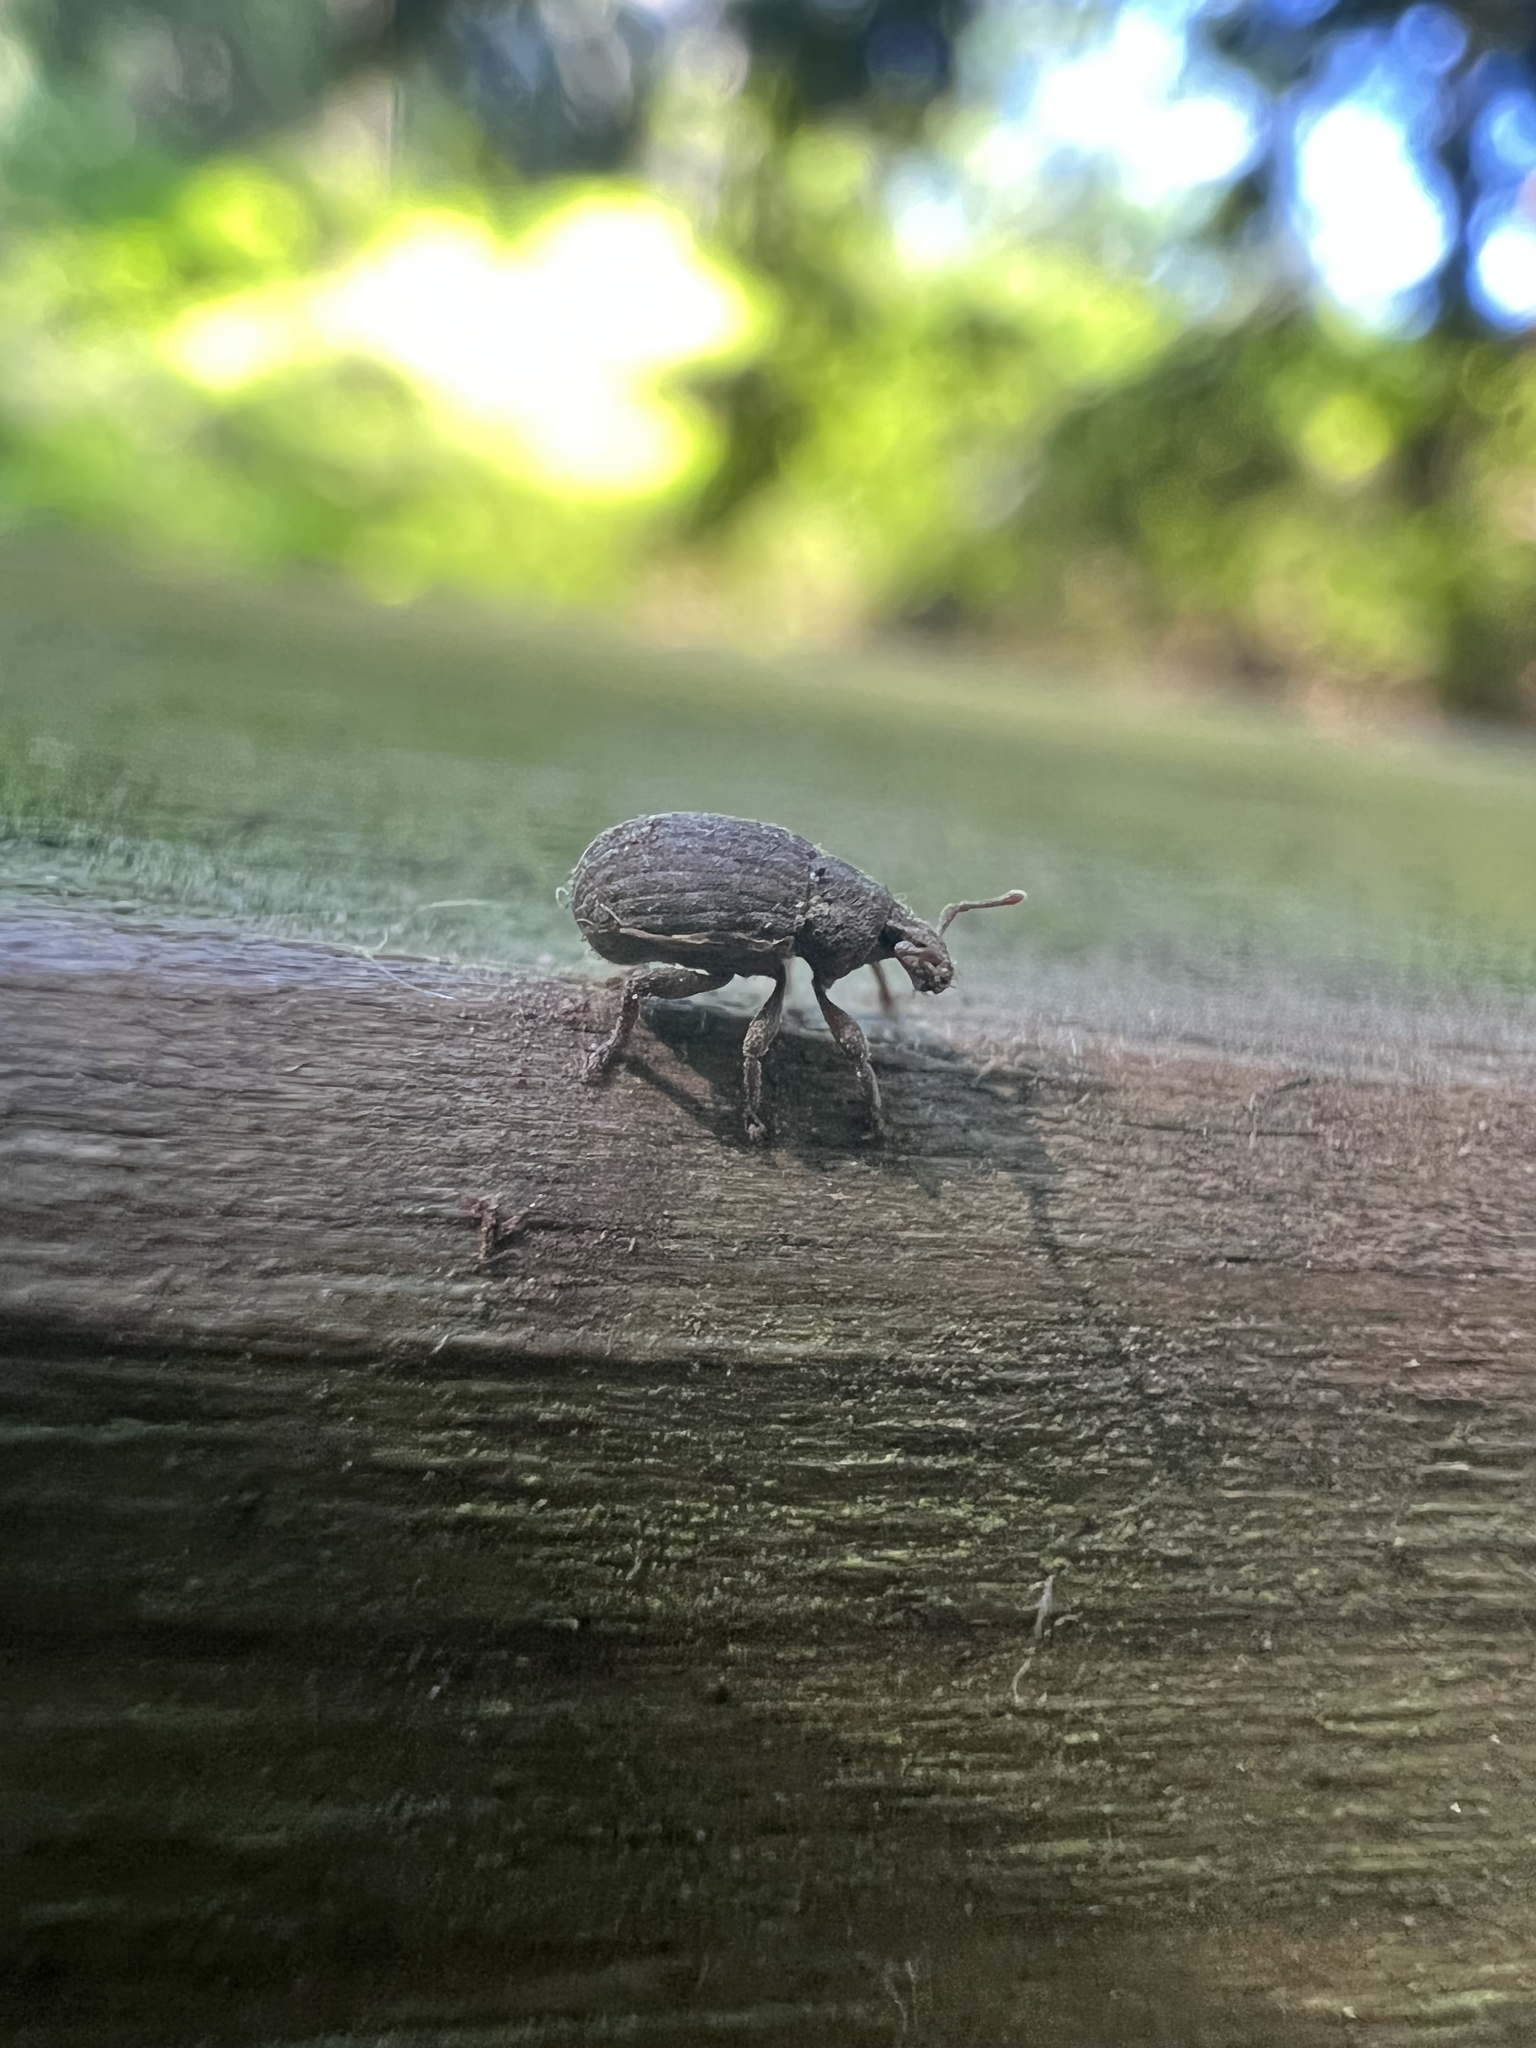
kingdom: Animalia
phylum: Arthropoda
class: Insecta
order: Coleoptera
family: Curculionidae
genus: Romualdius
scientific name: Romualdius scaber
